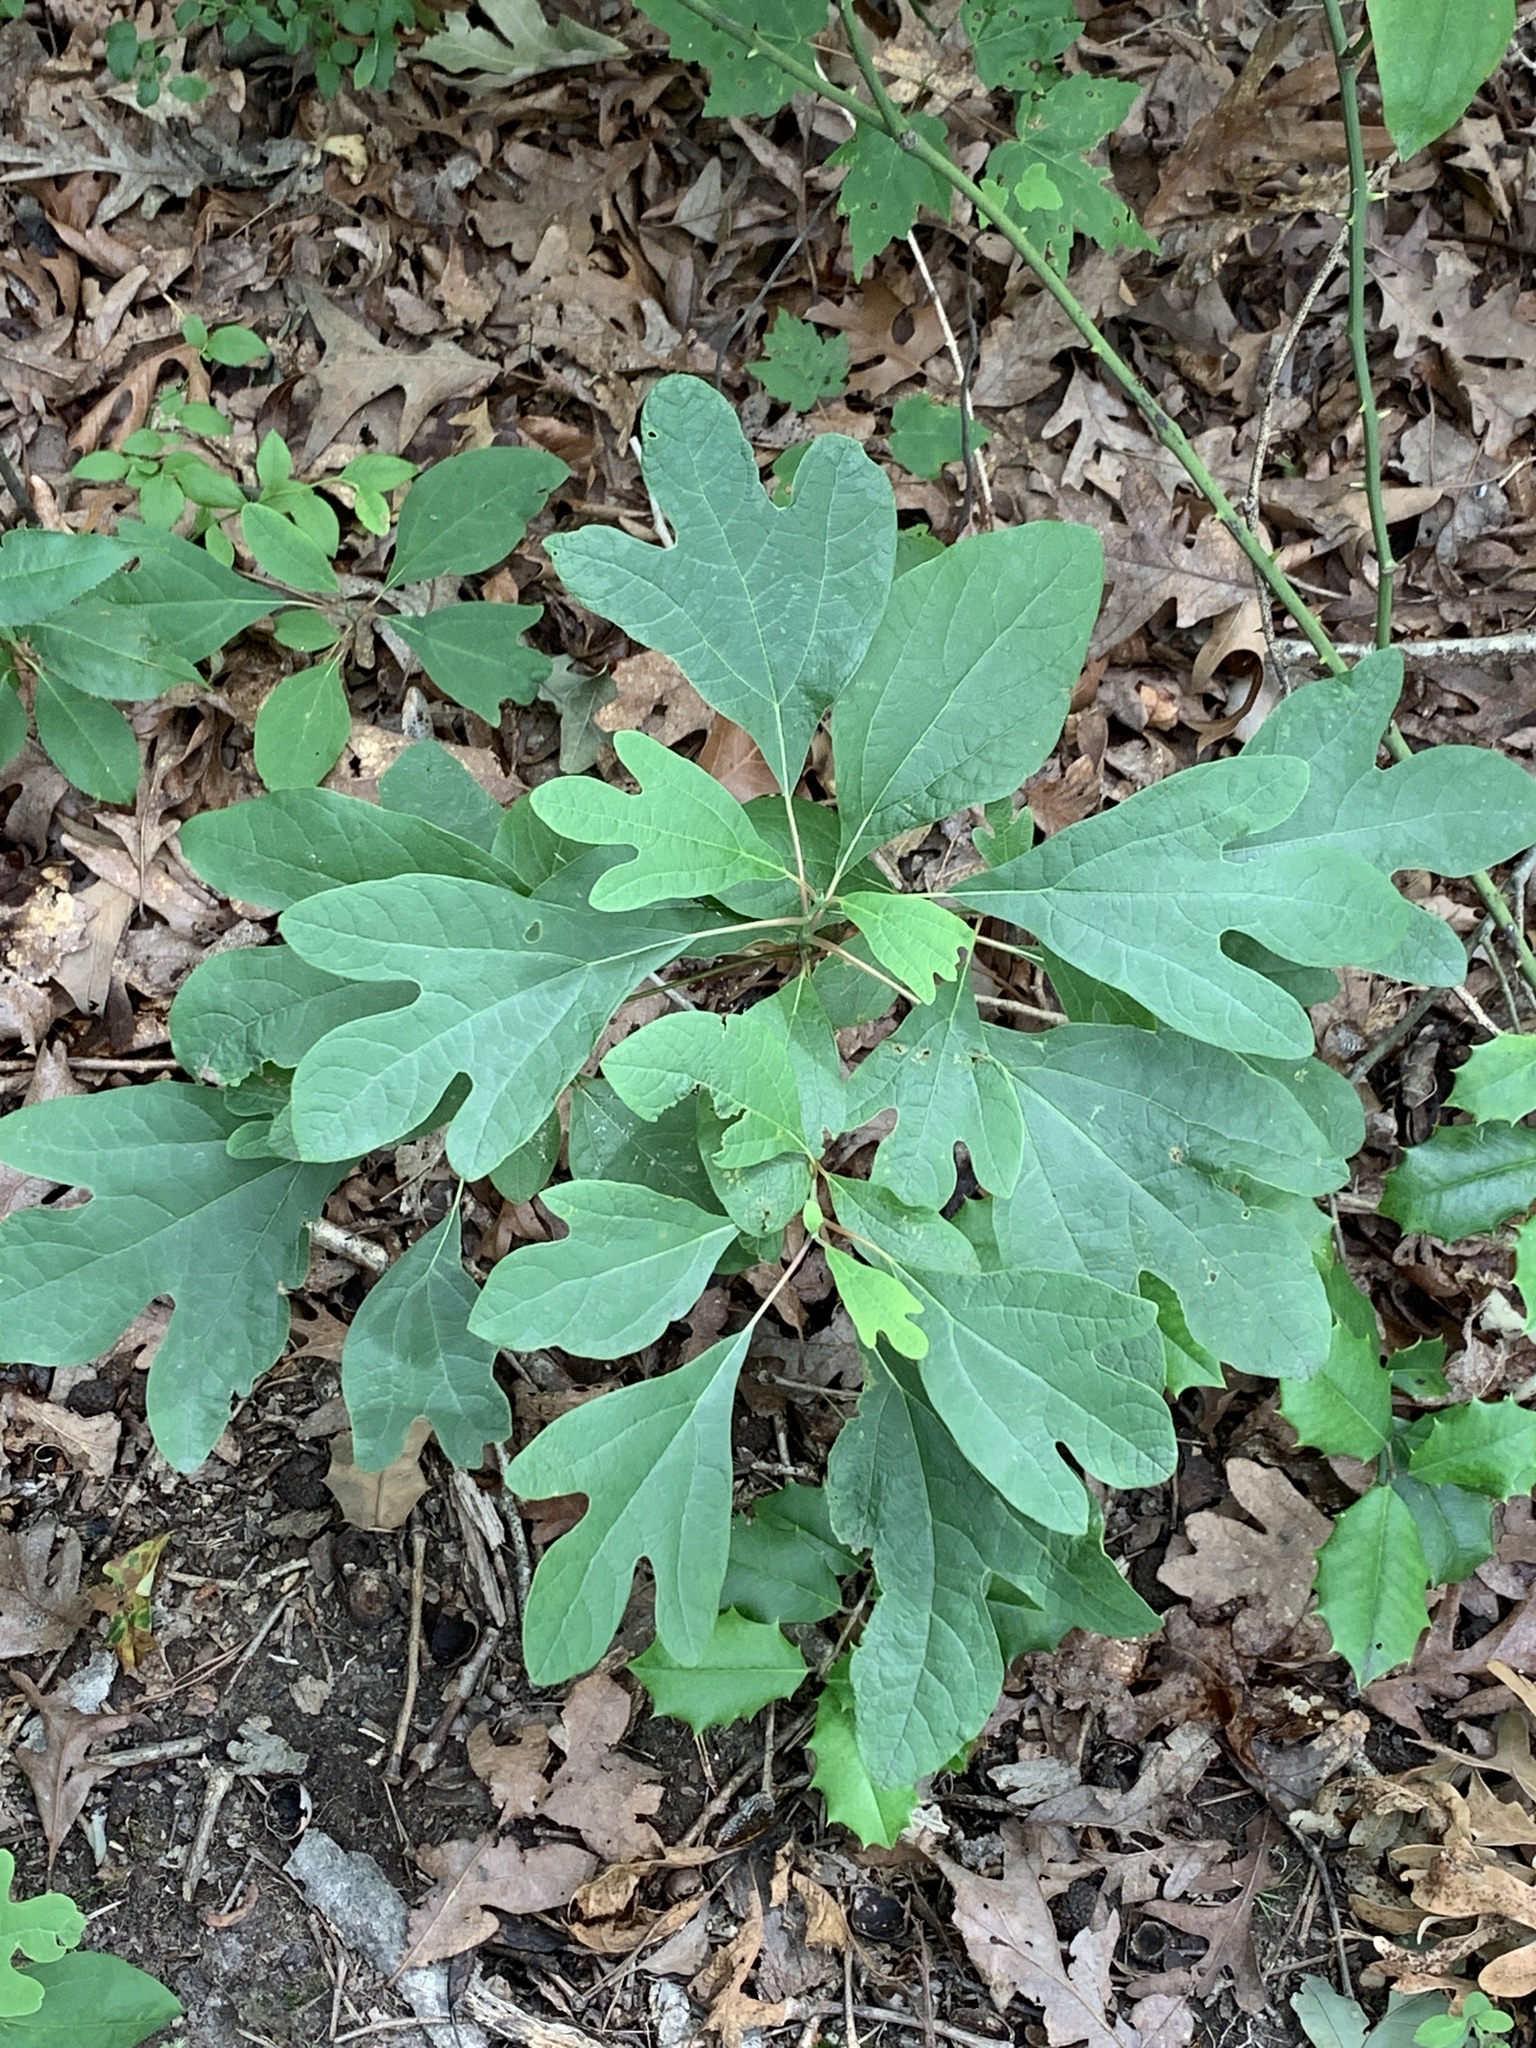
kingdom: Plantae
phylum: Tracheophyta
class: Magnoliopsida
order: Laurales
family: Lauraceae
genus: Sassafras
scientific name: Sassafras albidum
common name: Sassafras
